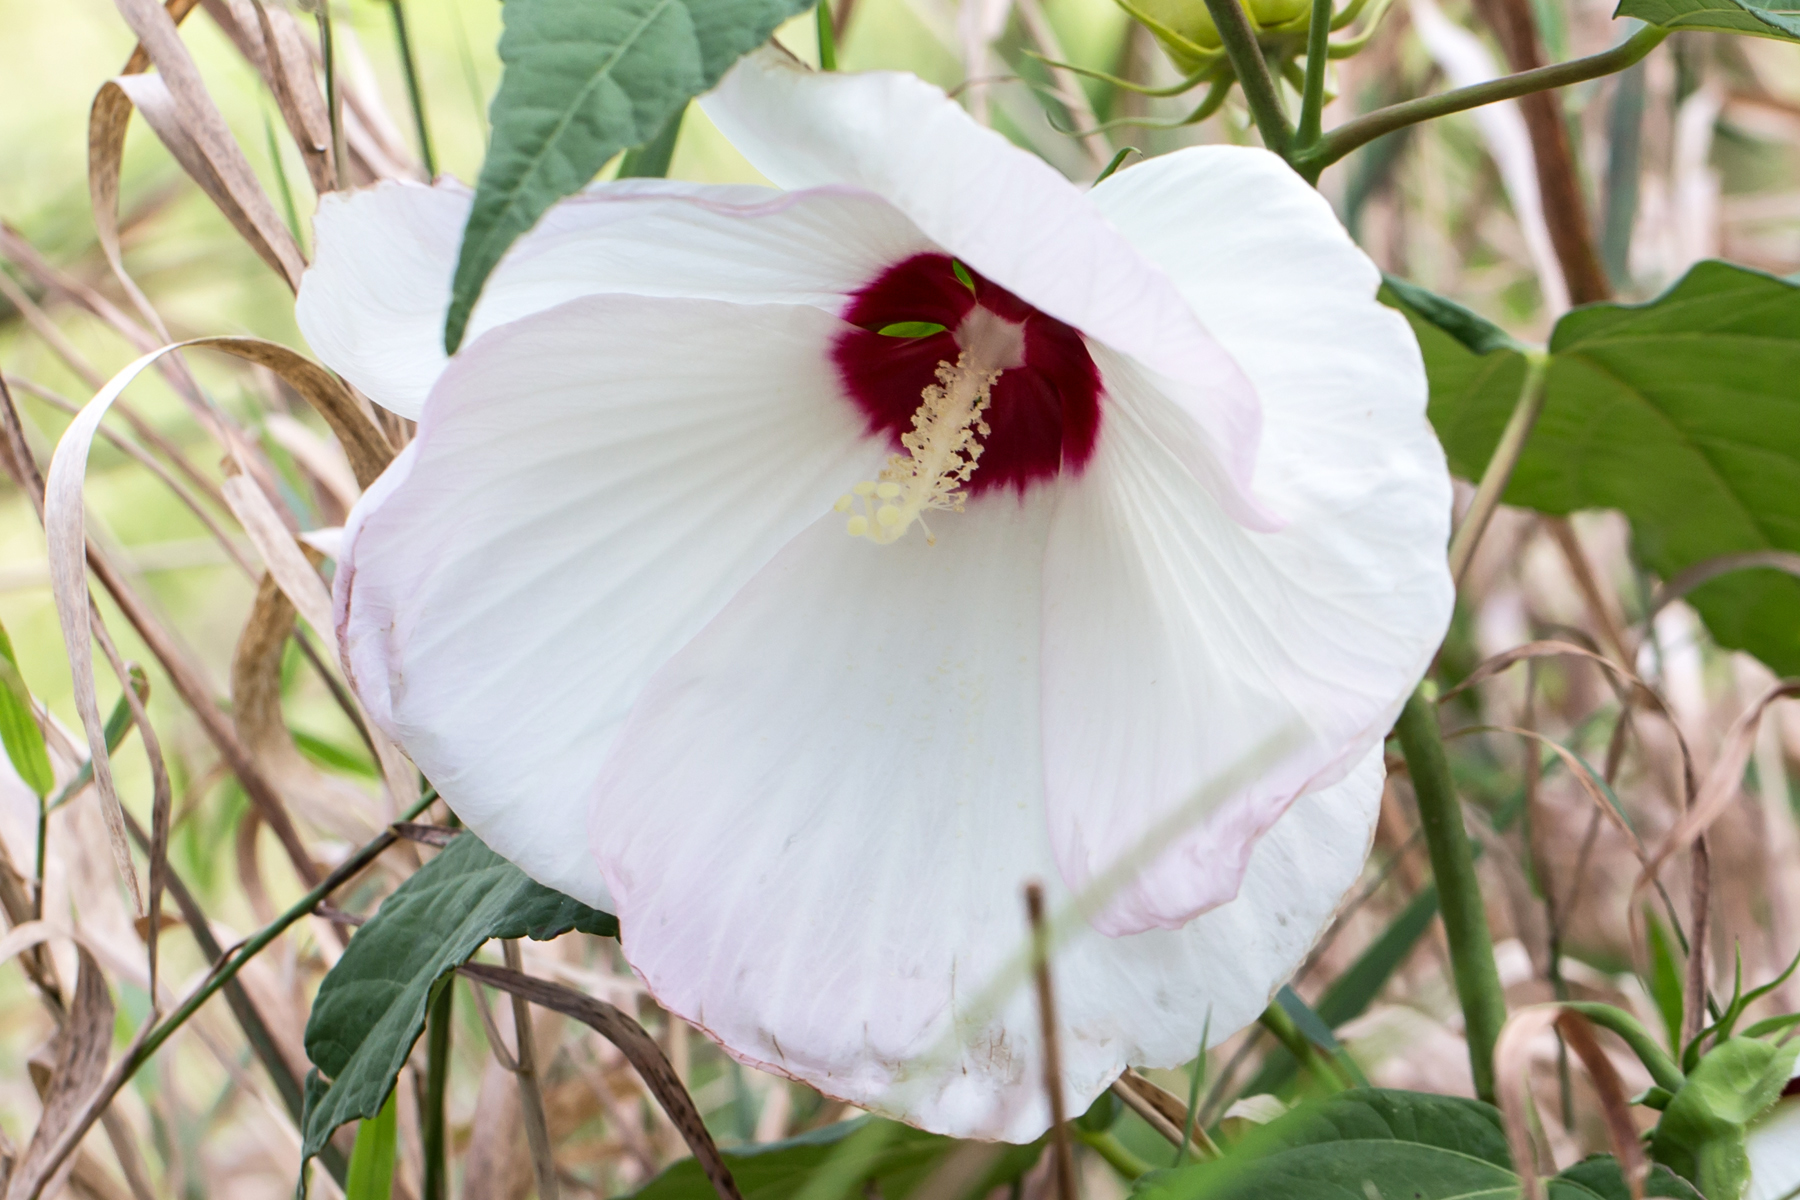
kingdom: Plantae
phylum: Tracheophyta
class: Magnoliopsida
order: Malvales
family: Malvaceae
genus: Hibiscus
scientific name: Hibiscus moscheutos
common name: Common rose-mallow
